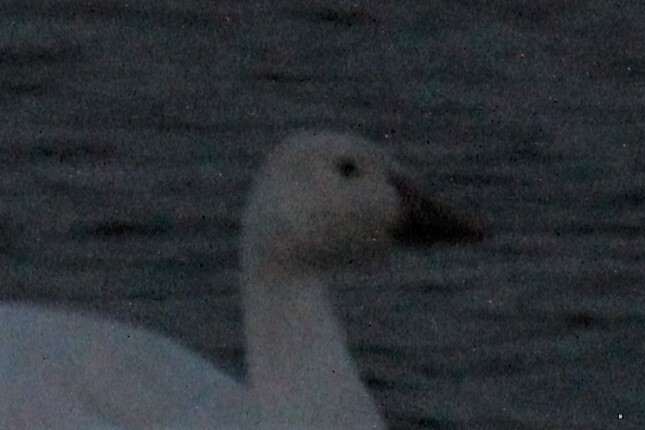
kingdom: Animalia
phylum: Chordata
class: Aves
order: Anseriformes
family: Anatidae
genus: Anser
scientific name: Anser caerulescens
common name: Snow goose
